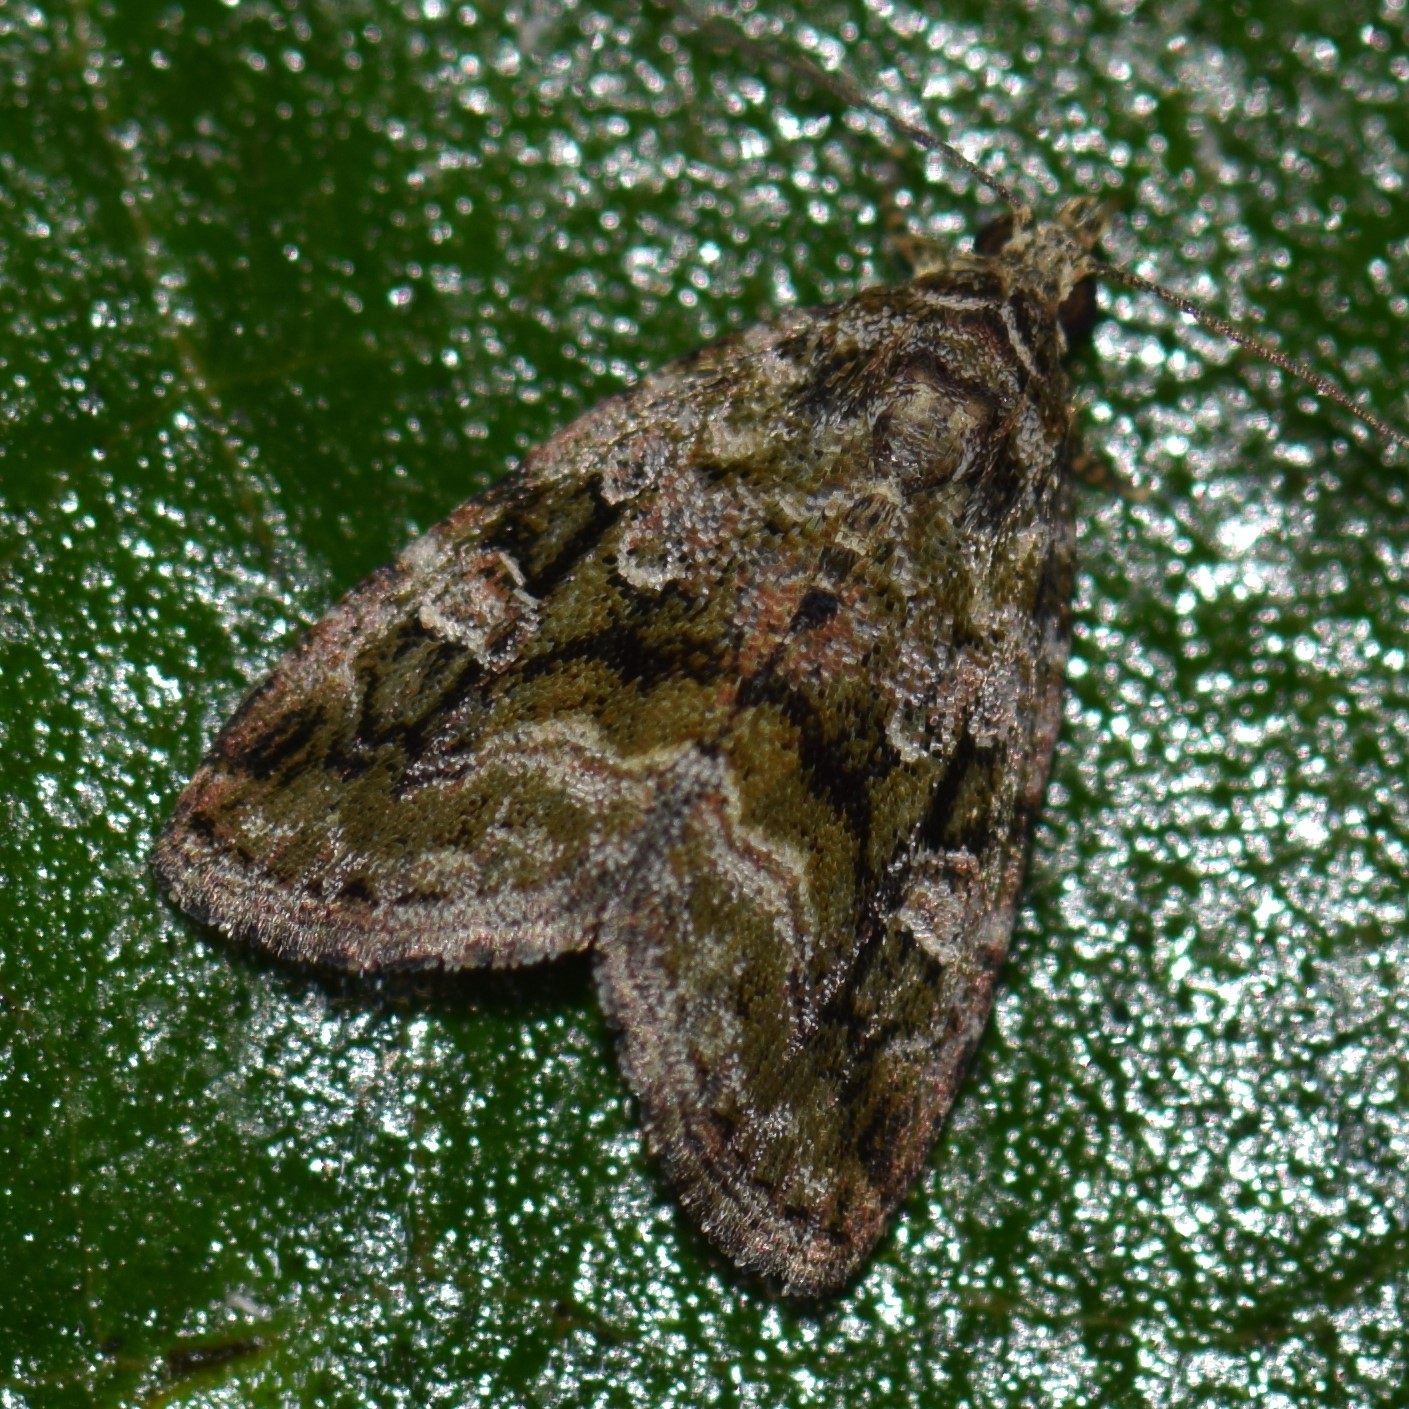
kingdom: Animalia
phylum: Arthropoda
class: Insecta
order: Lepidoptera
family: Noctuidae
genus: Protodeltote
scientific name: Protodeltote muscosula
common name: Large mossy glyph
